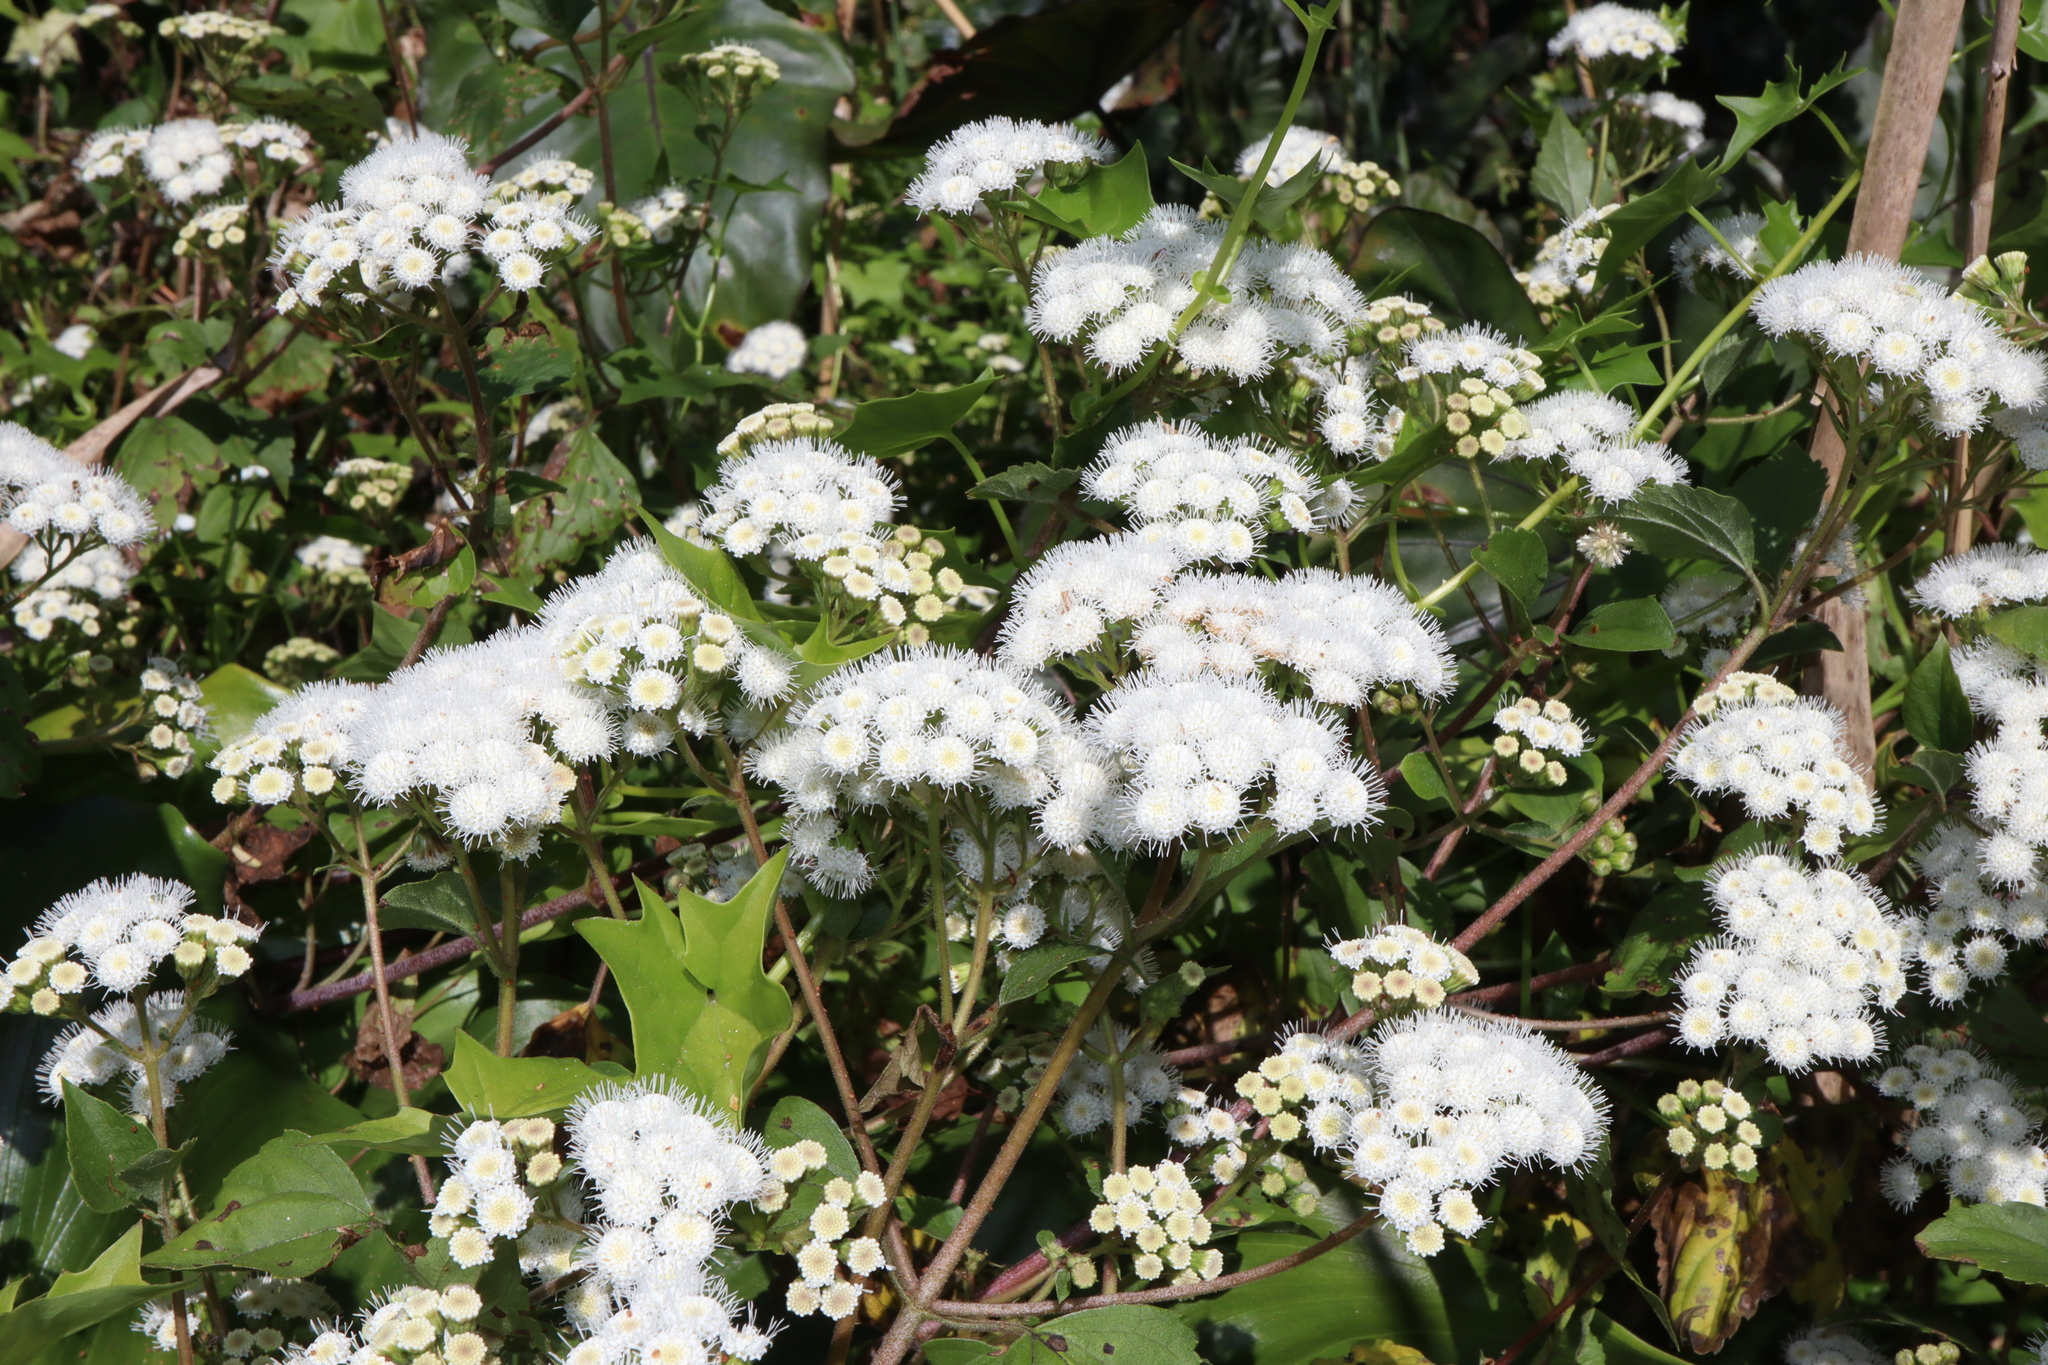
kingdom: Plantae
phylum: Tracheophyta
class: Magnoliopsida
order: Asterales
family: Asteraceae
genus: Ageratina
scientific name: Ageratina adenophora
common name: Sticky snakeroot
